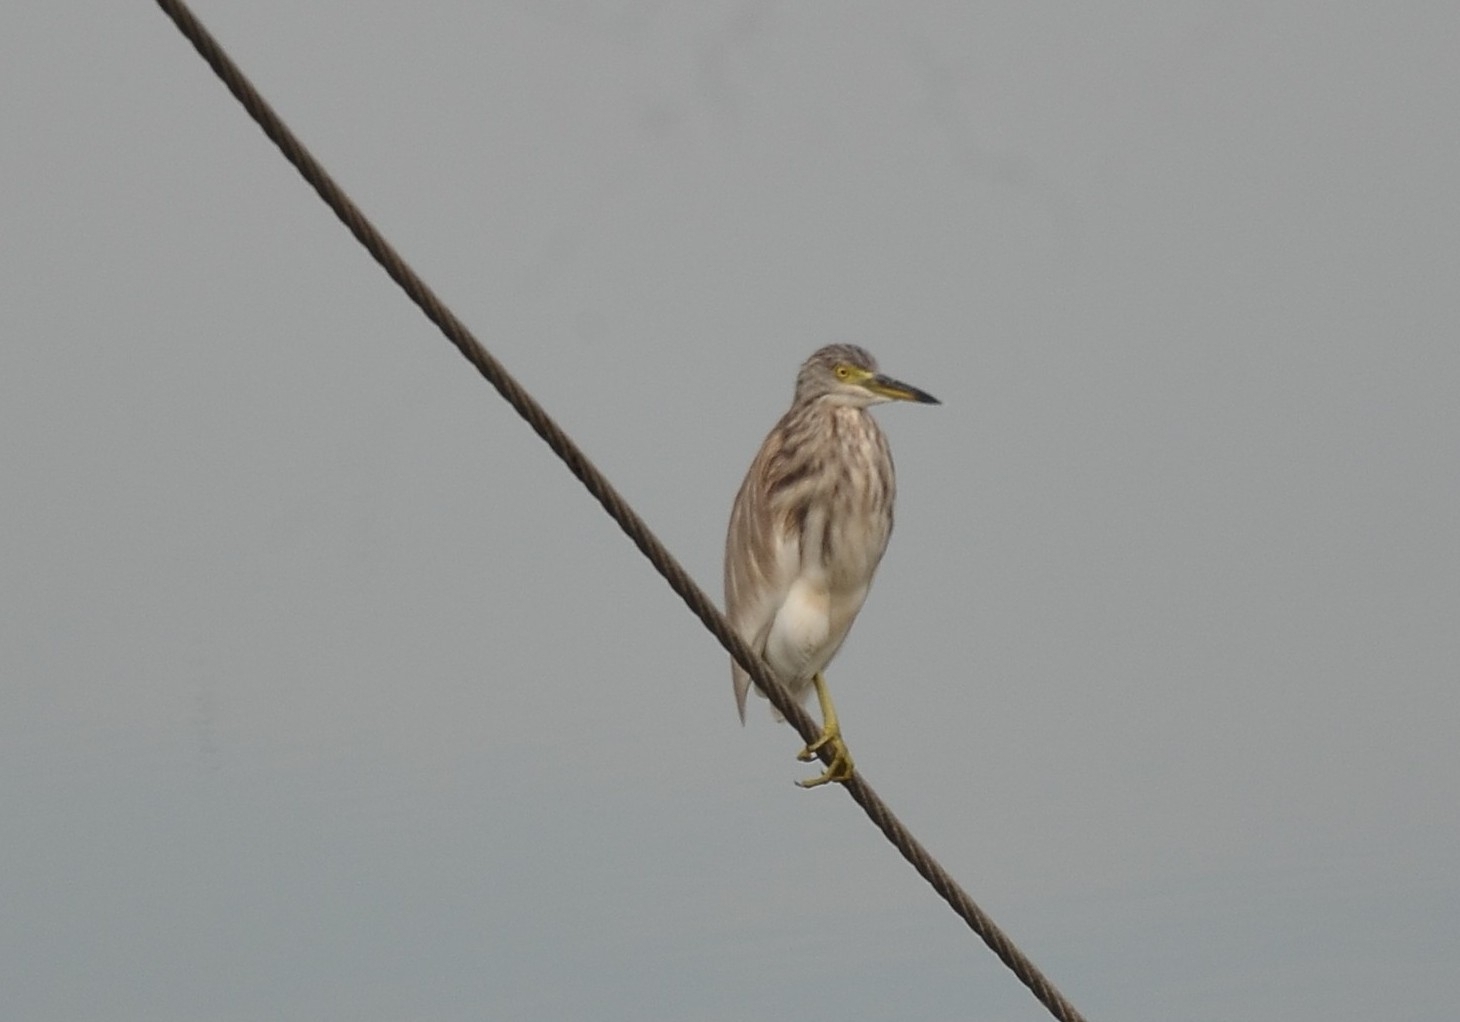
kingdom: Animalia
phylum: Chordata
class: Aves
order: Pelecaniformes
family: Ardeidae
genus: Ardeola
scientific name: Ardeola grayii
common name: Indian pond heron
